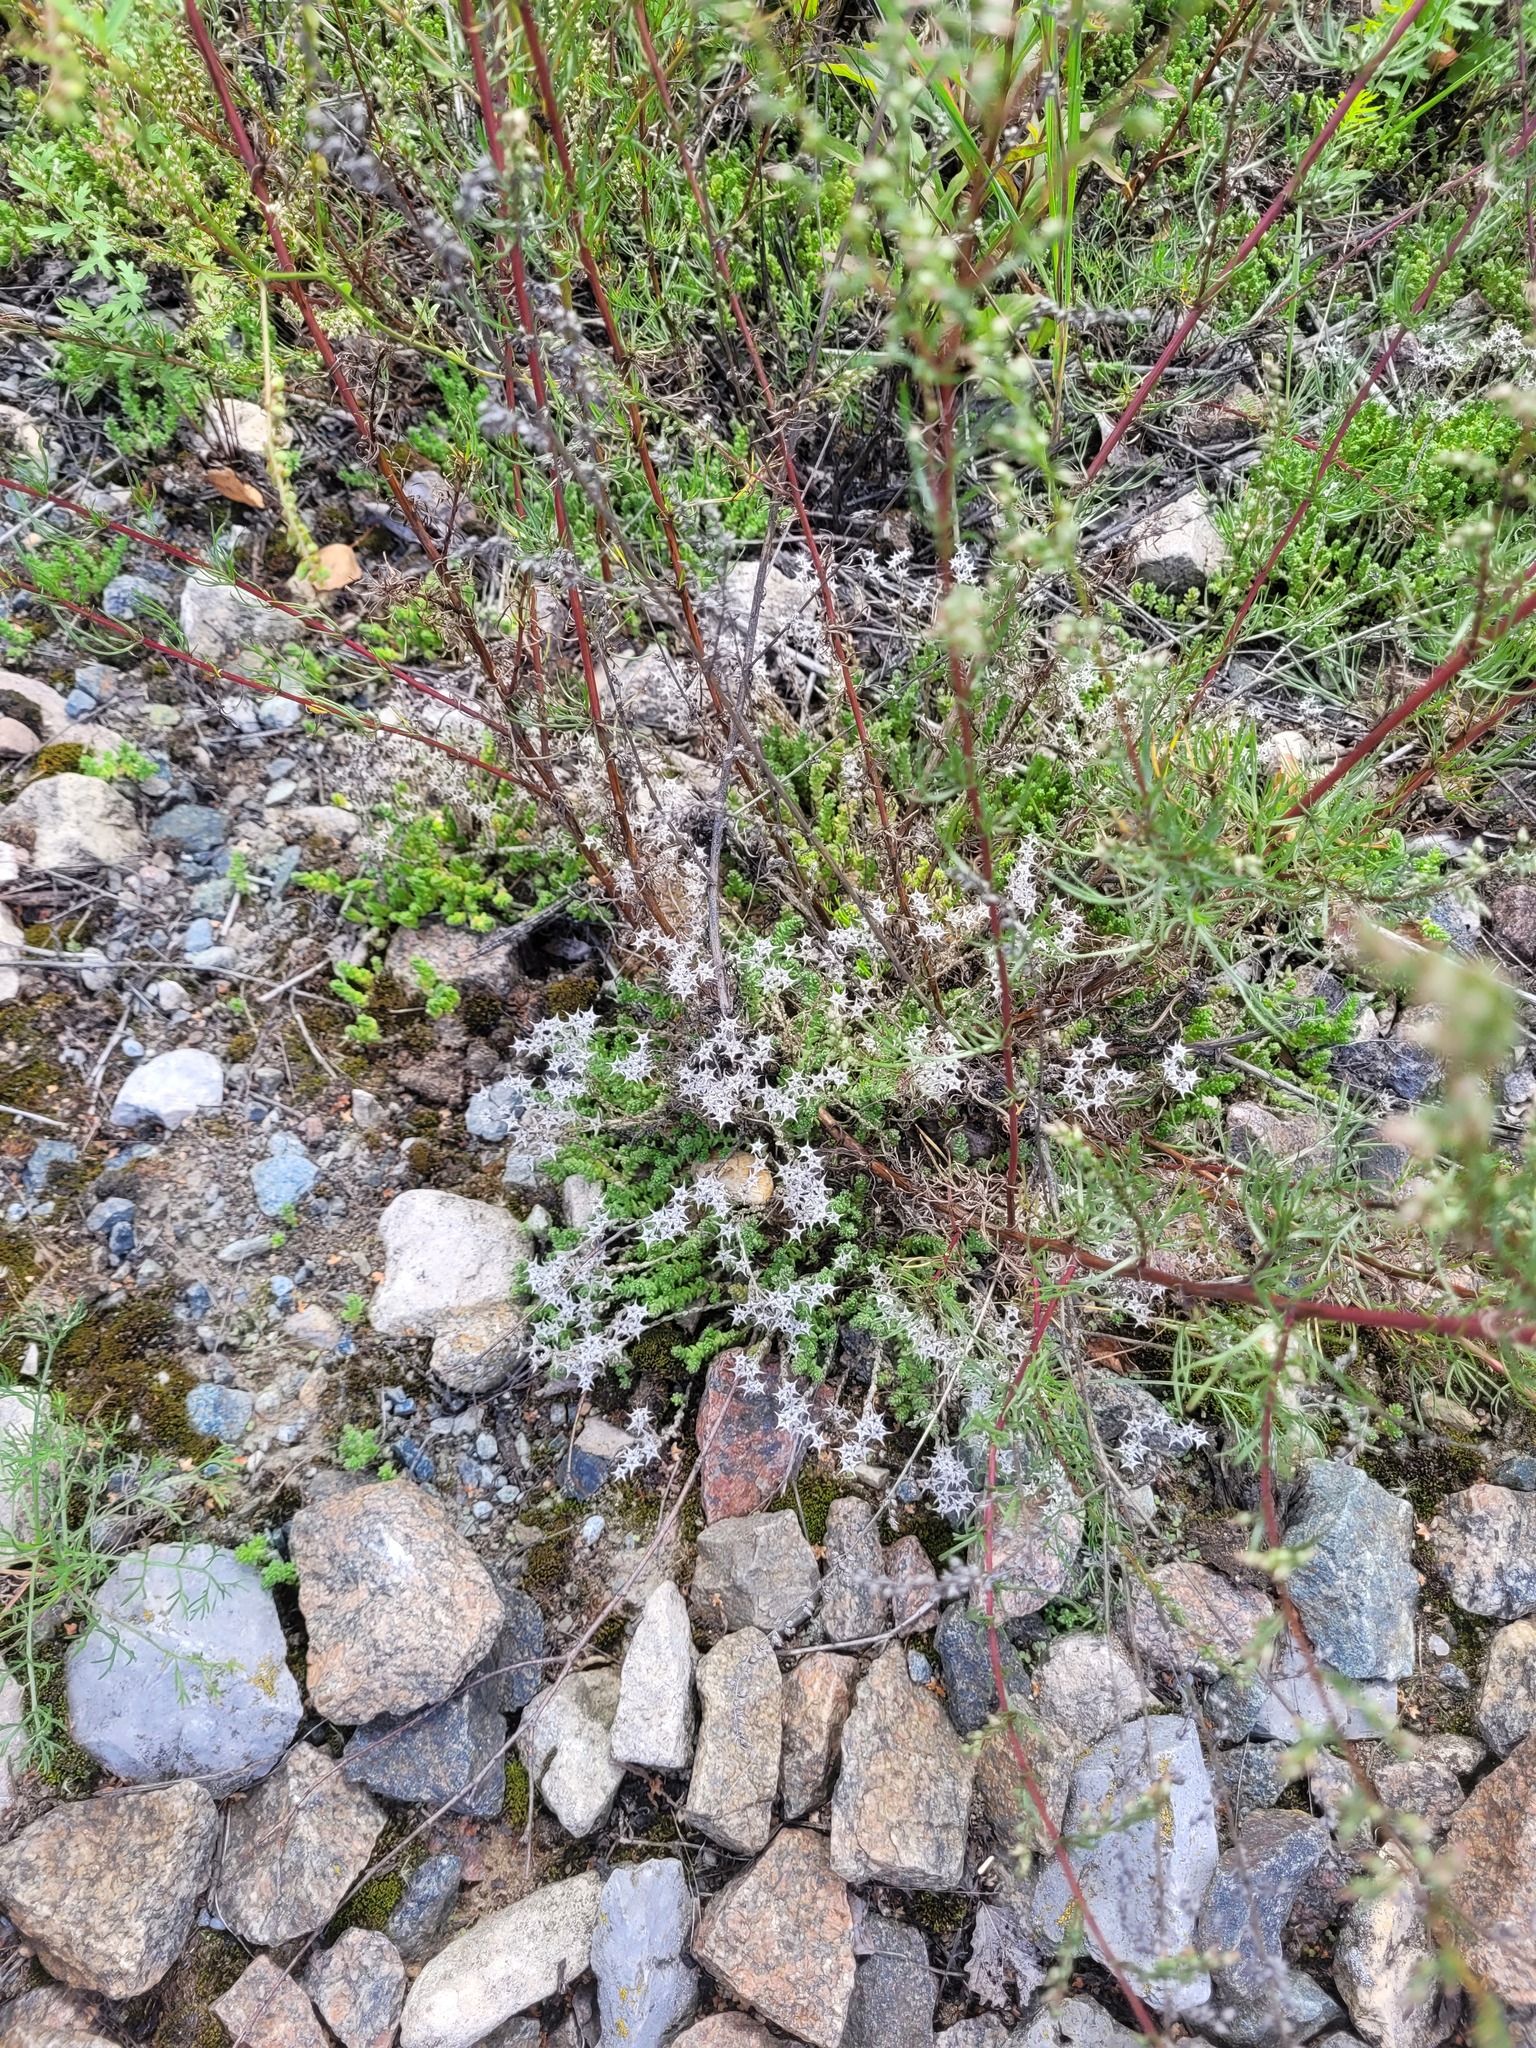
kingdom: Plantae
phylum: Tracheophyta
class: Magnoliopsida
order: Saxifragales
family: Crassulaceae
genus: Sedum
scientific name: Sedum acre
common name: Biting stonecrop
